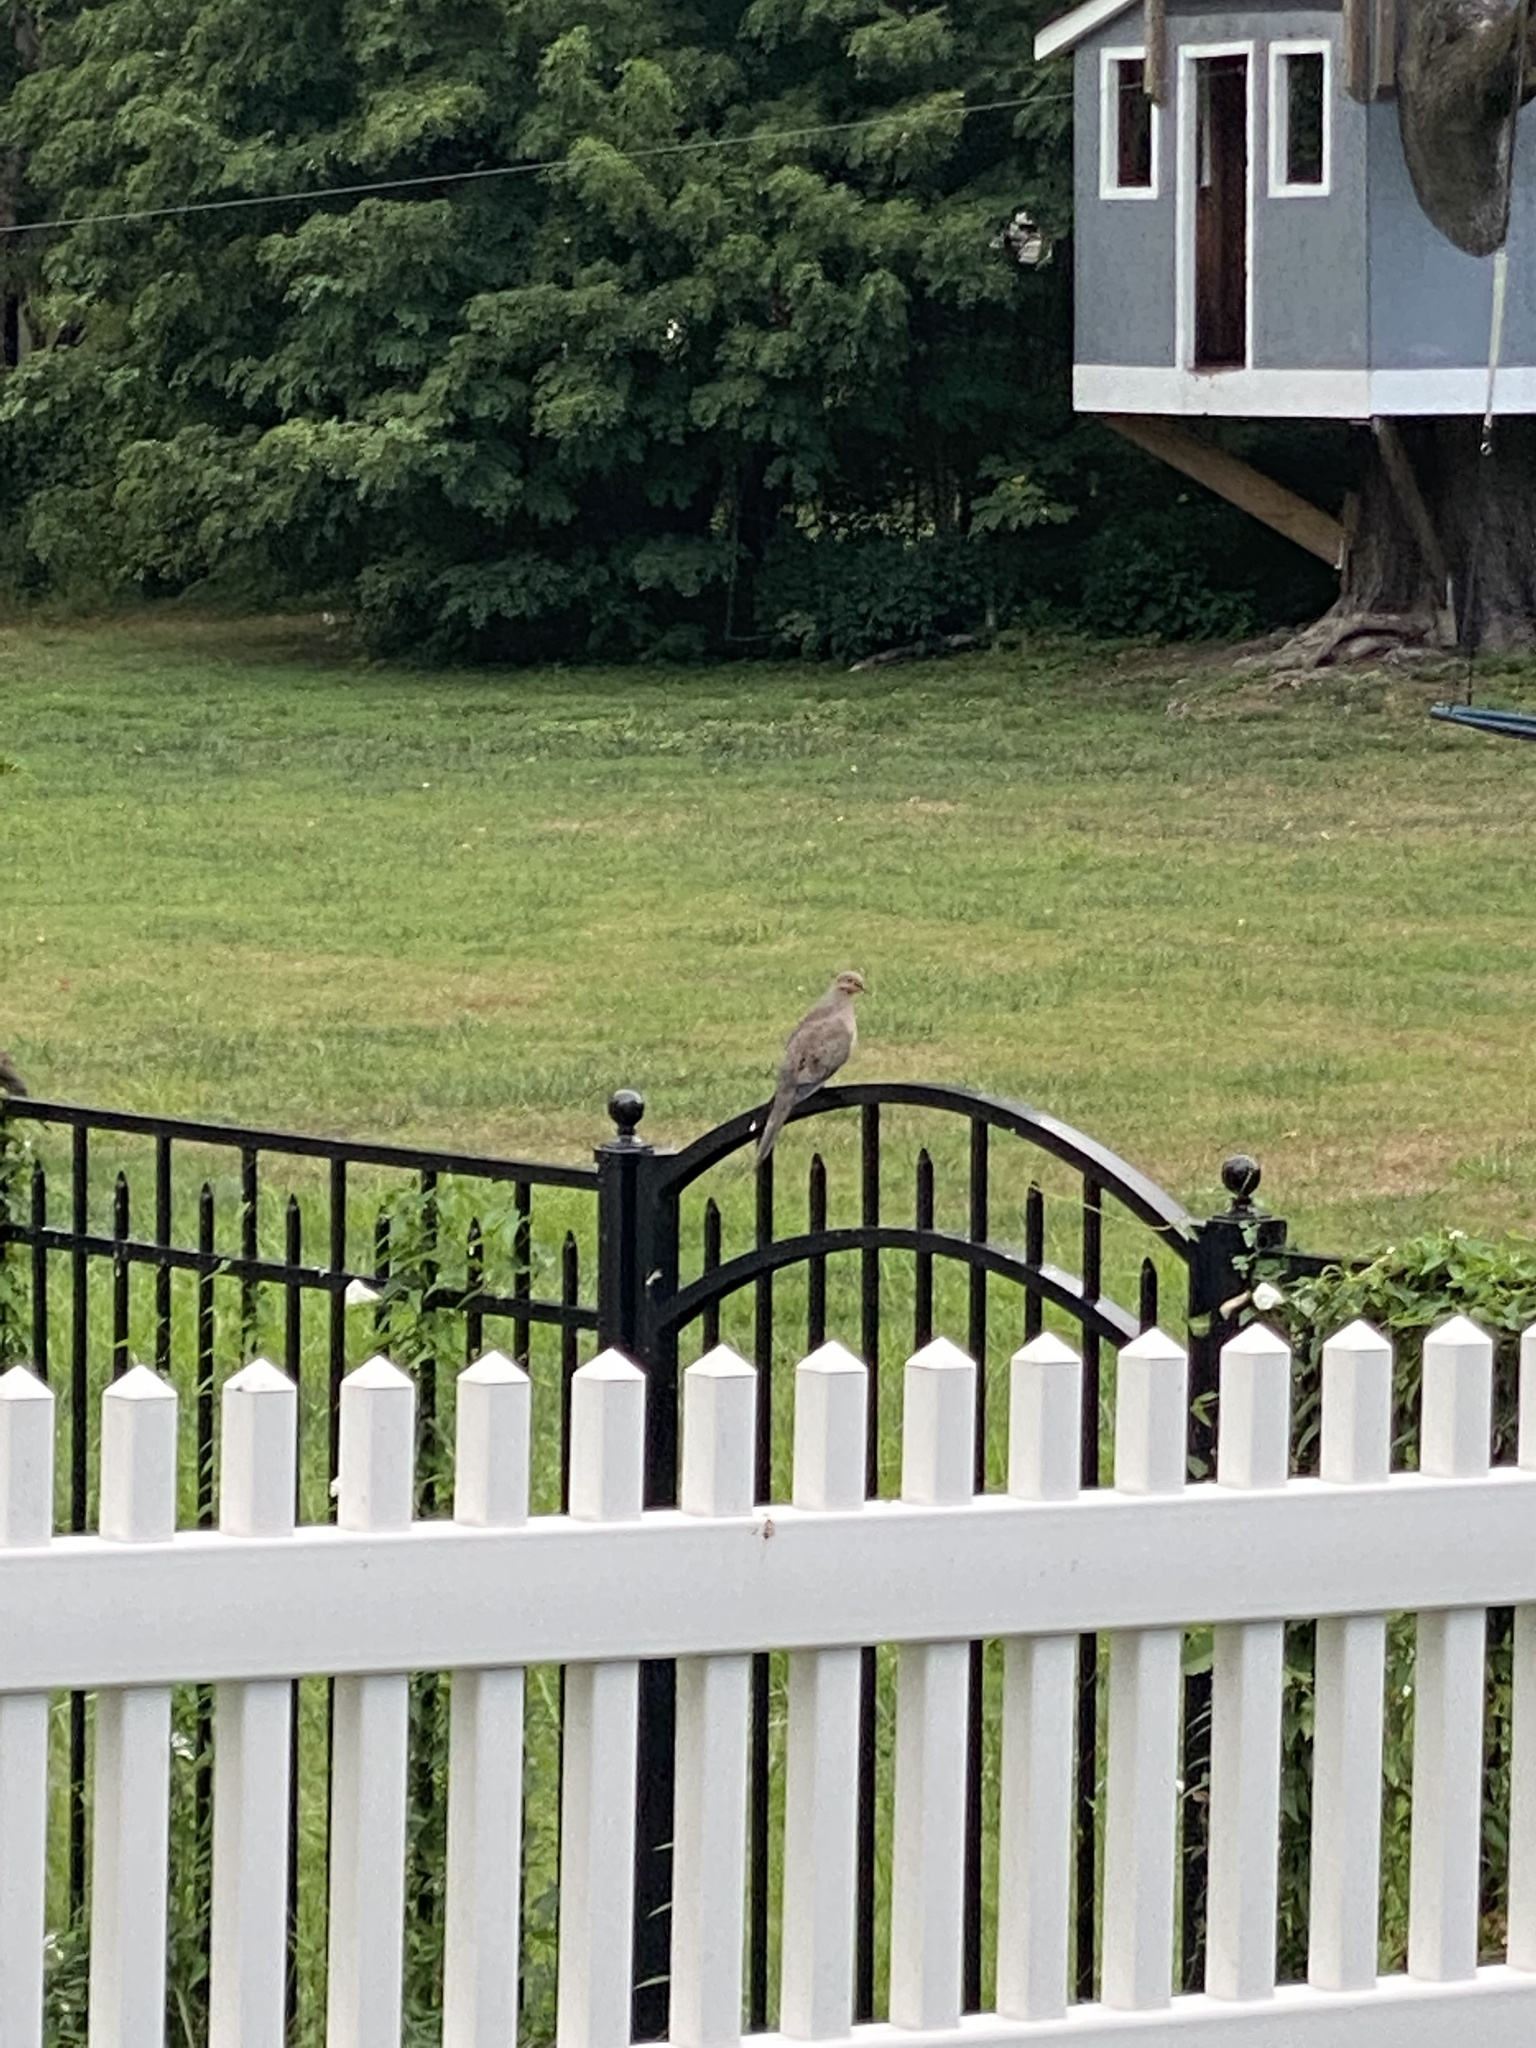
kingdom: Animalia
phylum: Chordata
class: Aves
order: Columbiformes
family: Columbidae
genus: Zenaida
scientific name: Zenaida macroura
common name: Mourning dove
